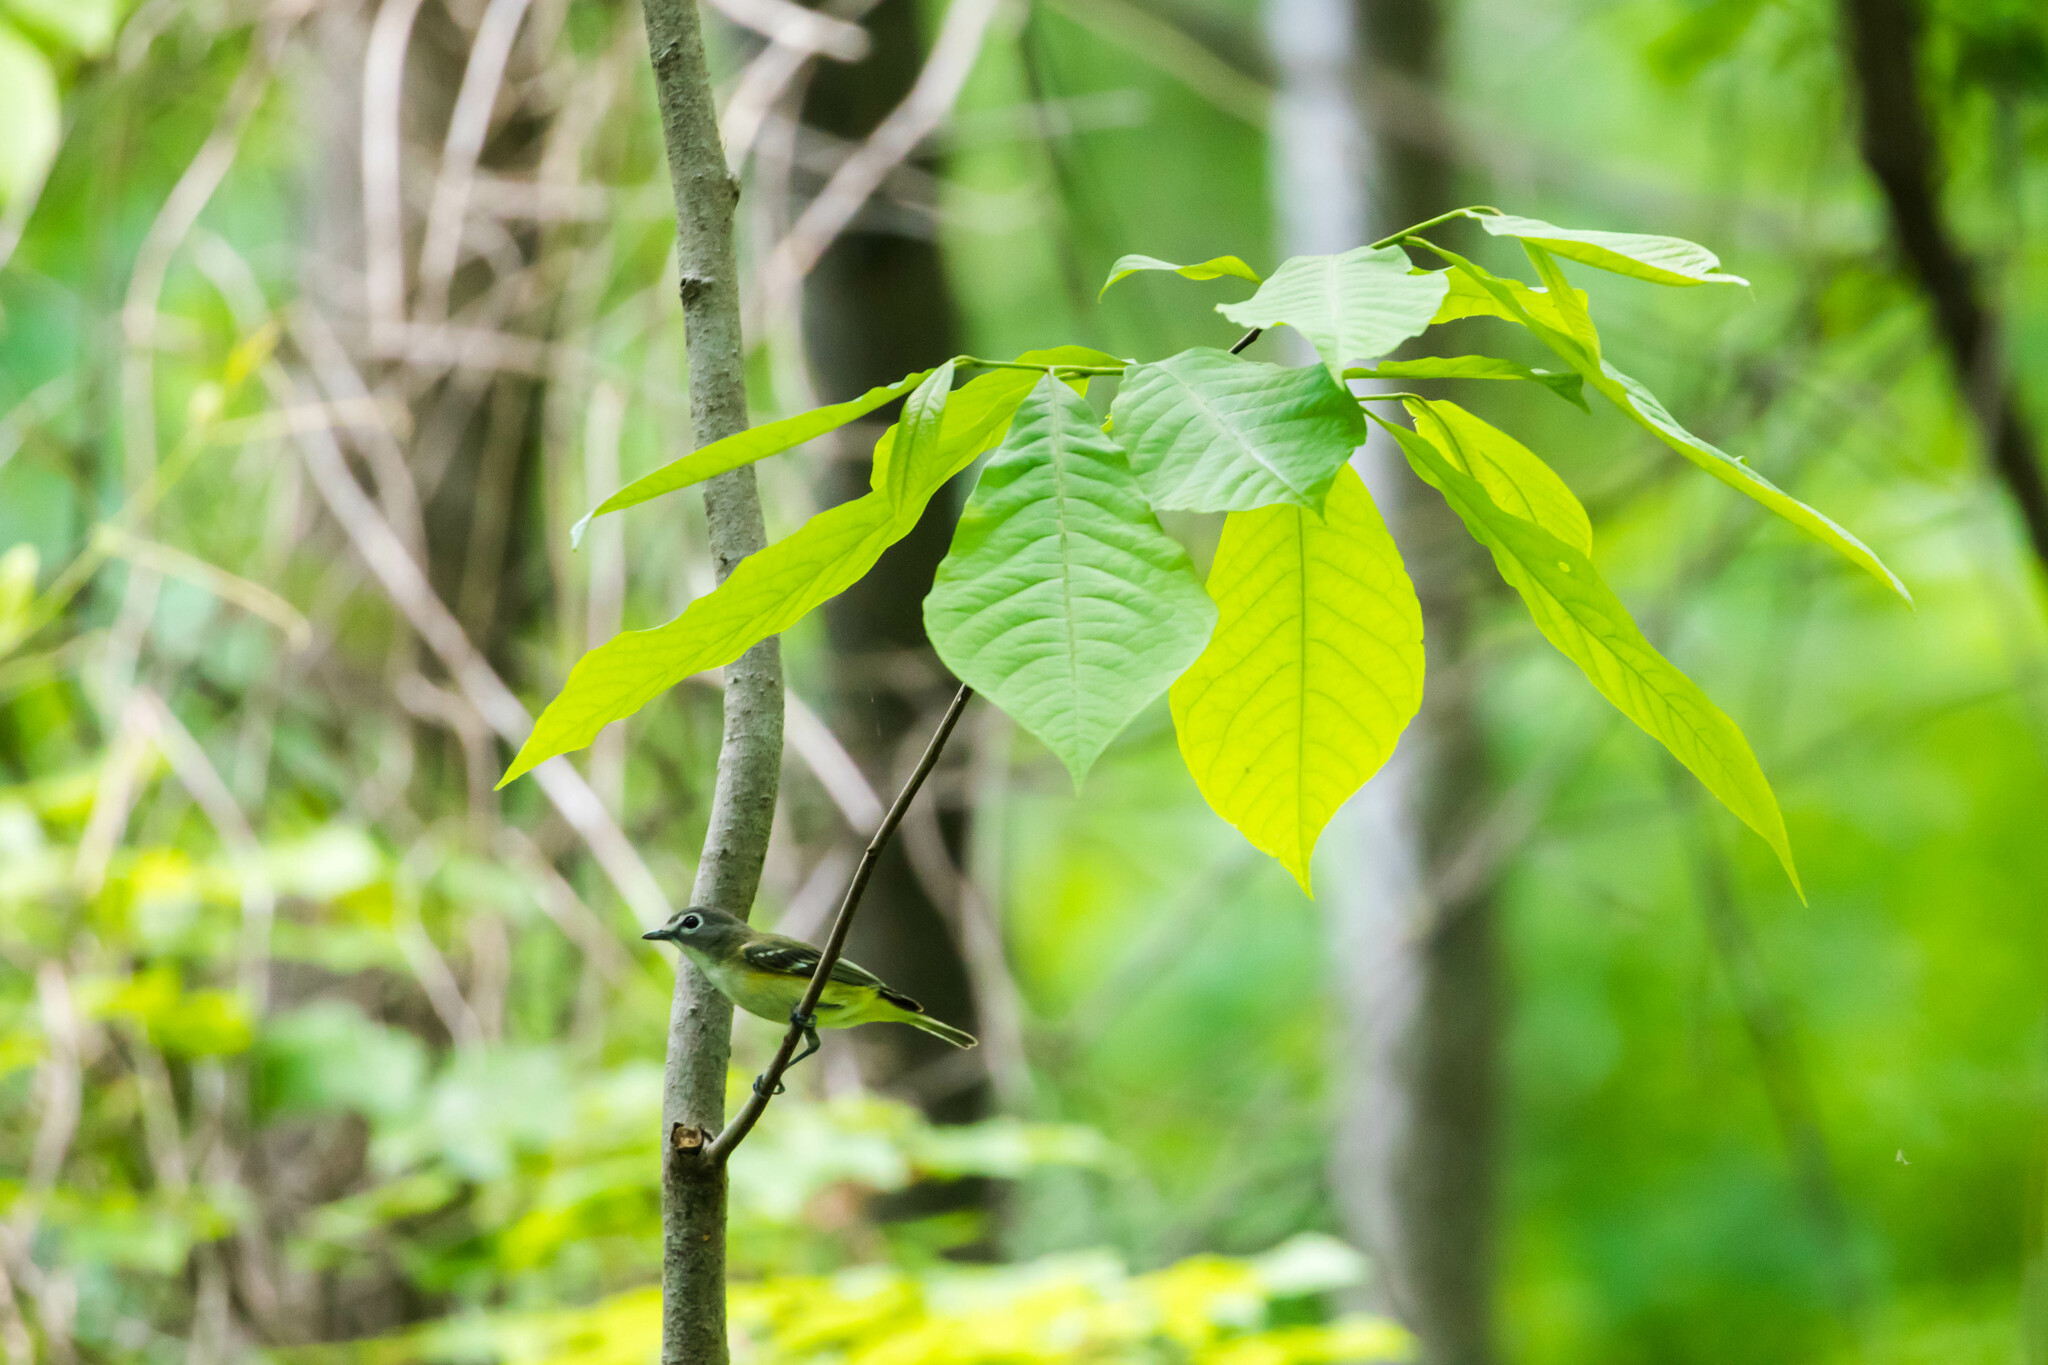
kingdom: Animalia
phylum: Chordata
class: Aves
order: Passeriformes
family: Vireonidae
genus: Vireo
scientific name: Vireo solitarius
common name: Blue-headed vireo
